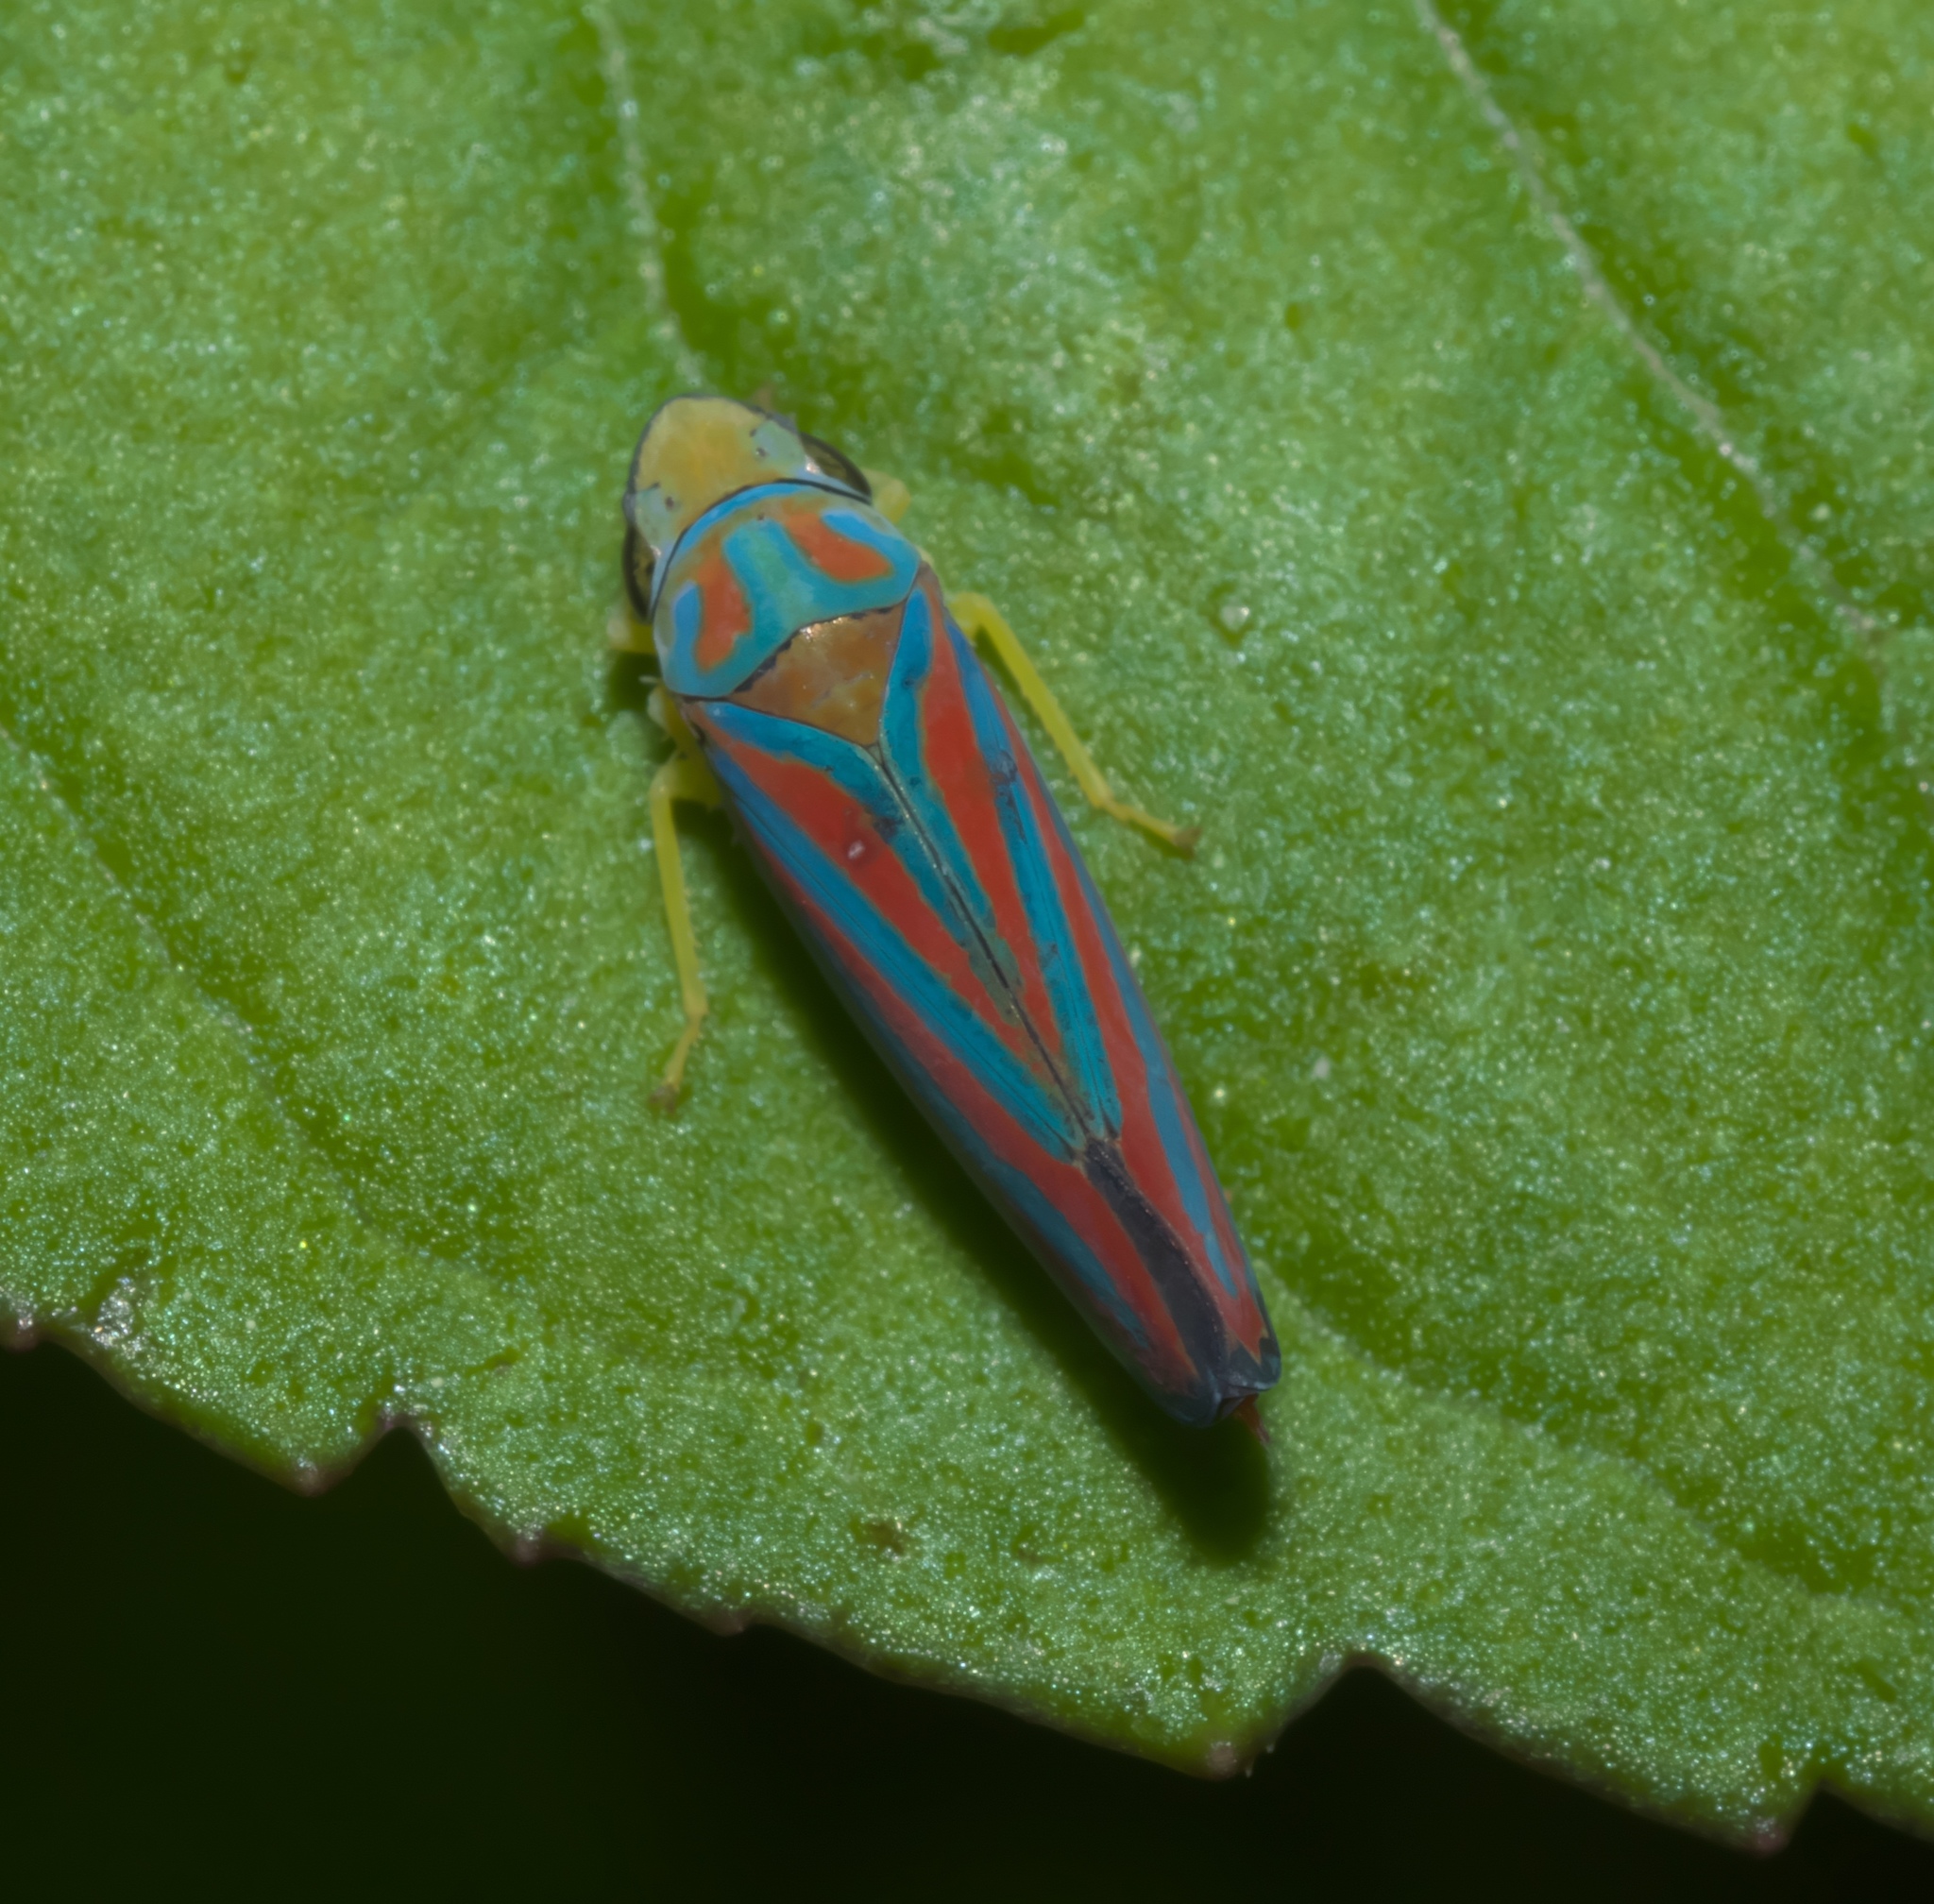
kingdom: Animalia
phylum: Arthropoda
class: Insecta
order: Hemiptera
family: Cicadellidae
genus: Graphocephala
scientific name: Graphocephala coccinea
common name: Candy-striped leafhopper
